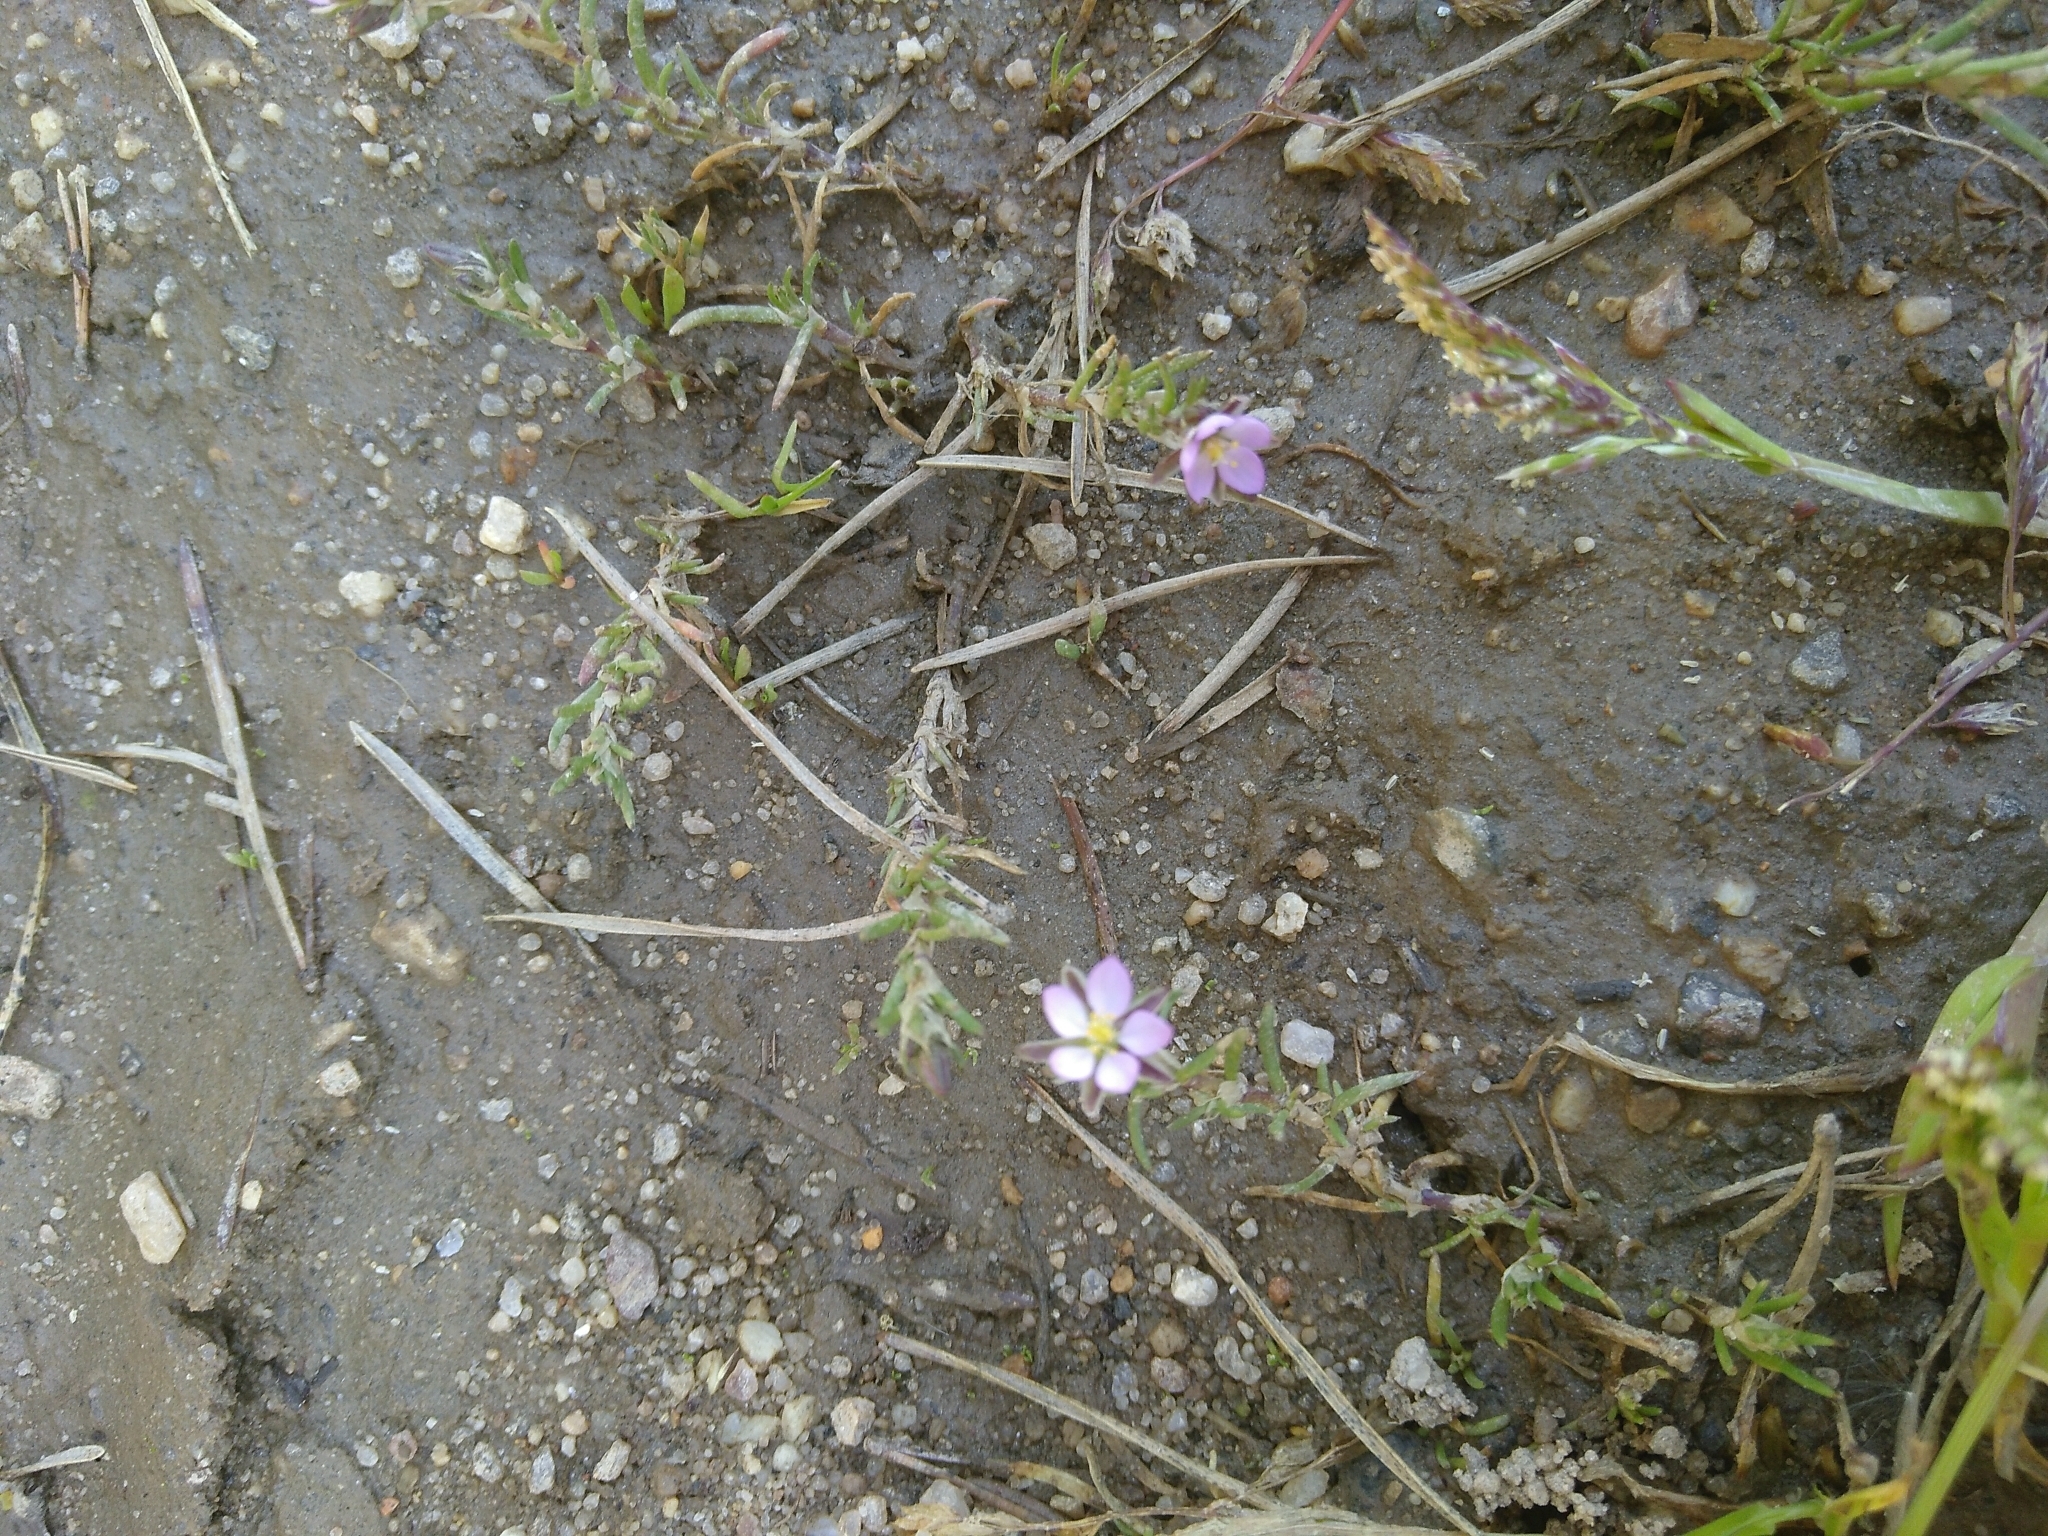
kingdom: Plantae
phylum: Tracheophyta
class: Magnoliopsida
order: Caryophyllales
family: Caryophyllaceae
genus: Spergularia
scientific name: Spergularia rubra
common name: Red sand-spurrey
